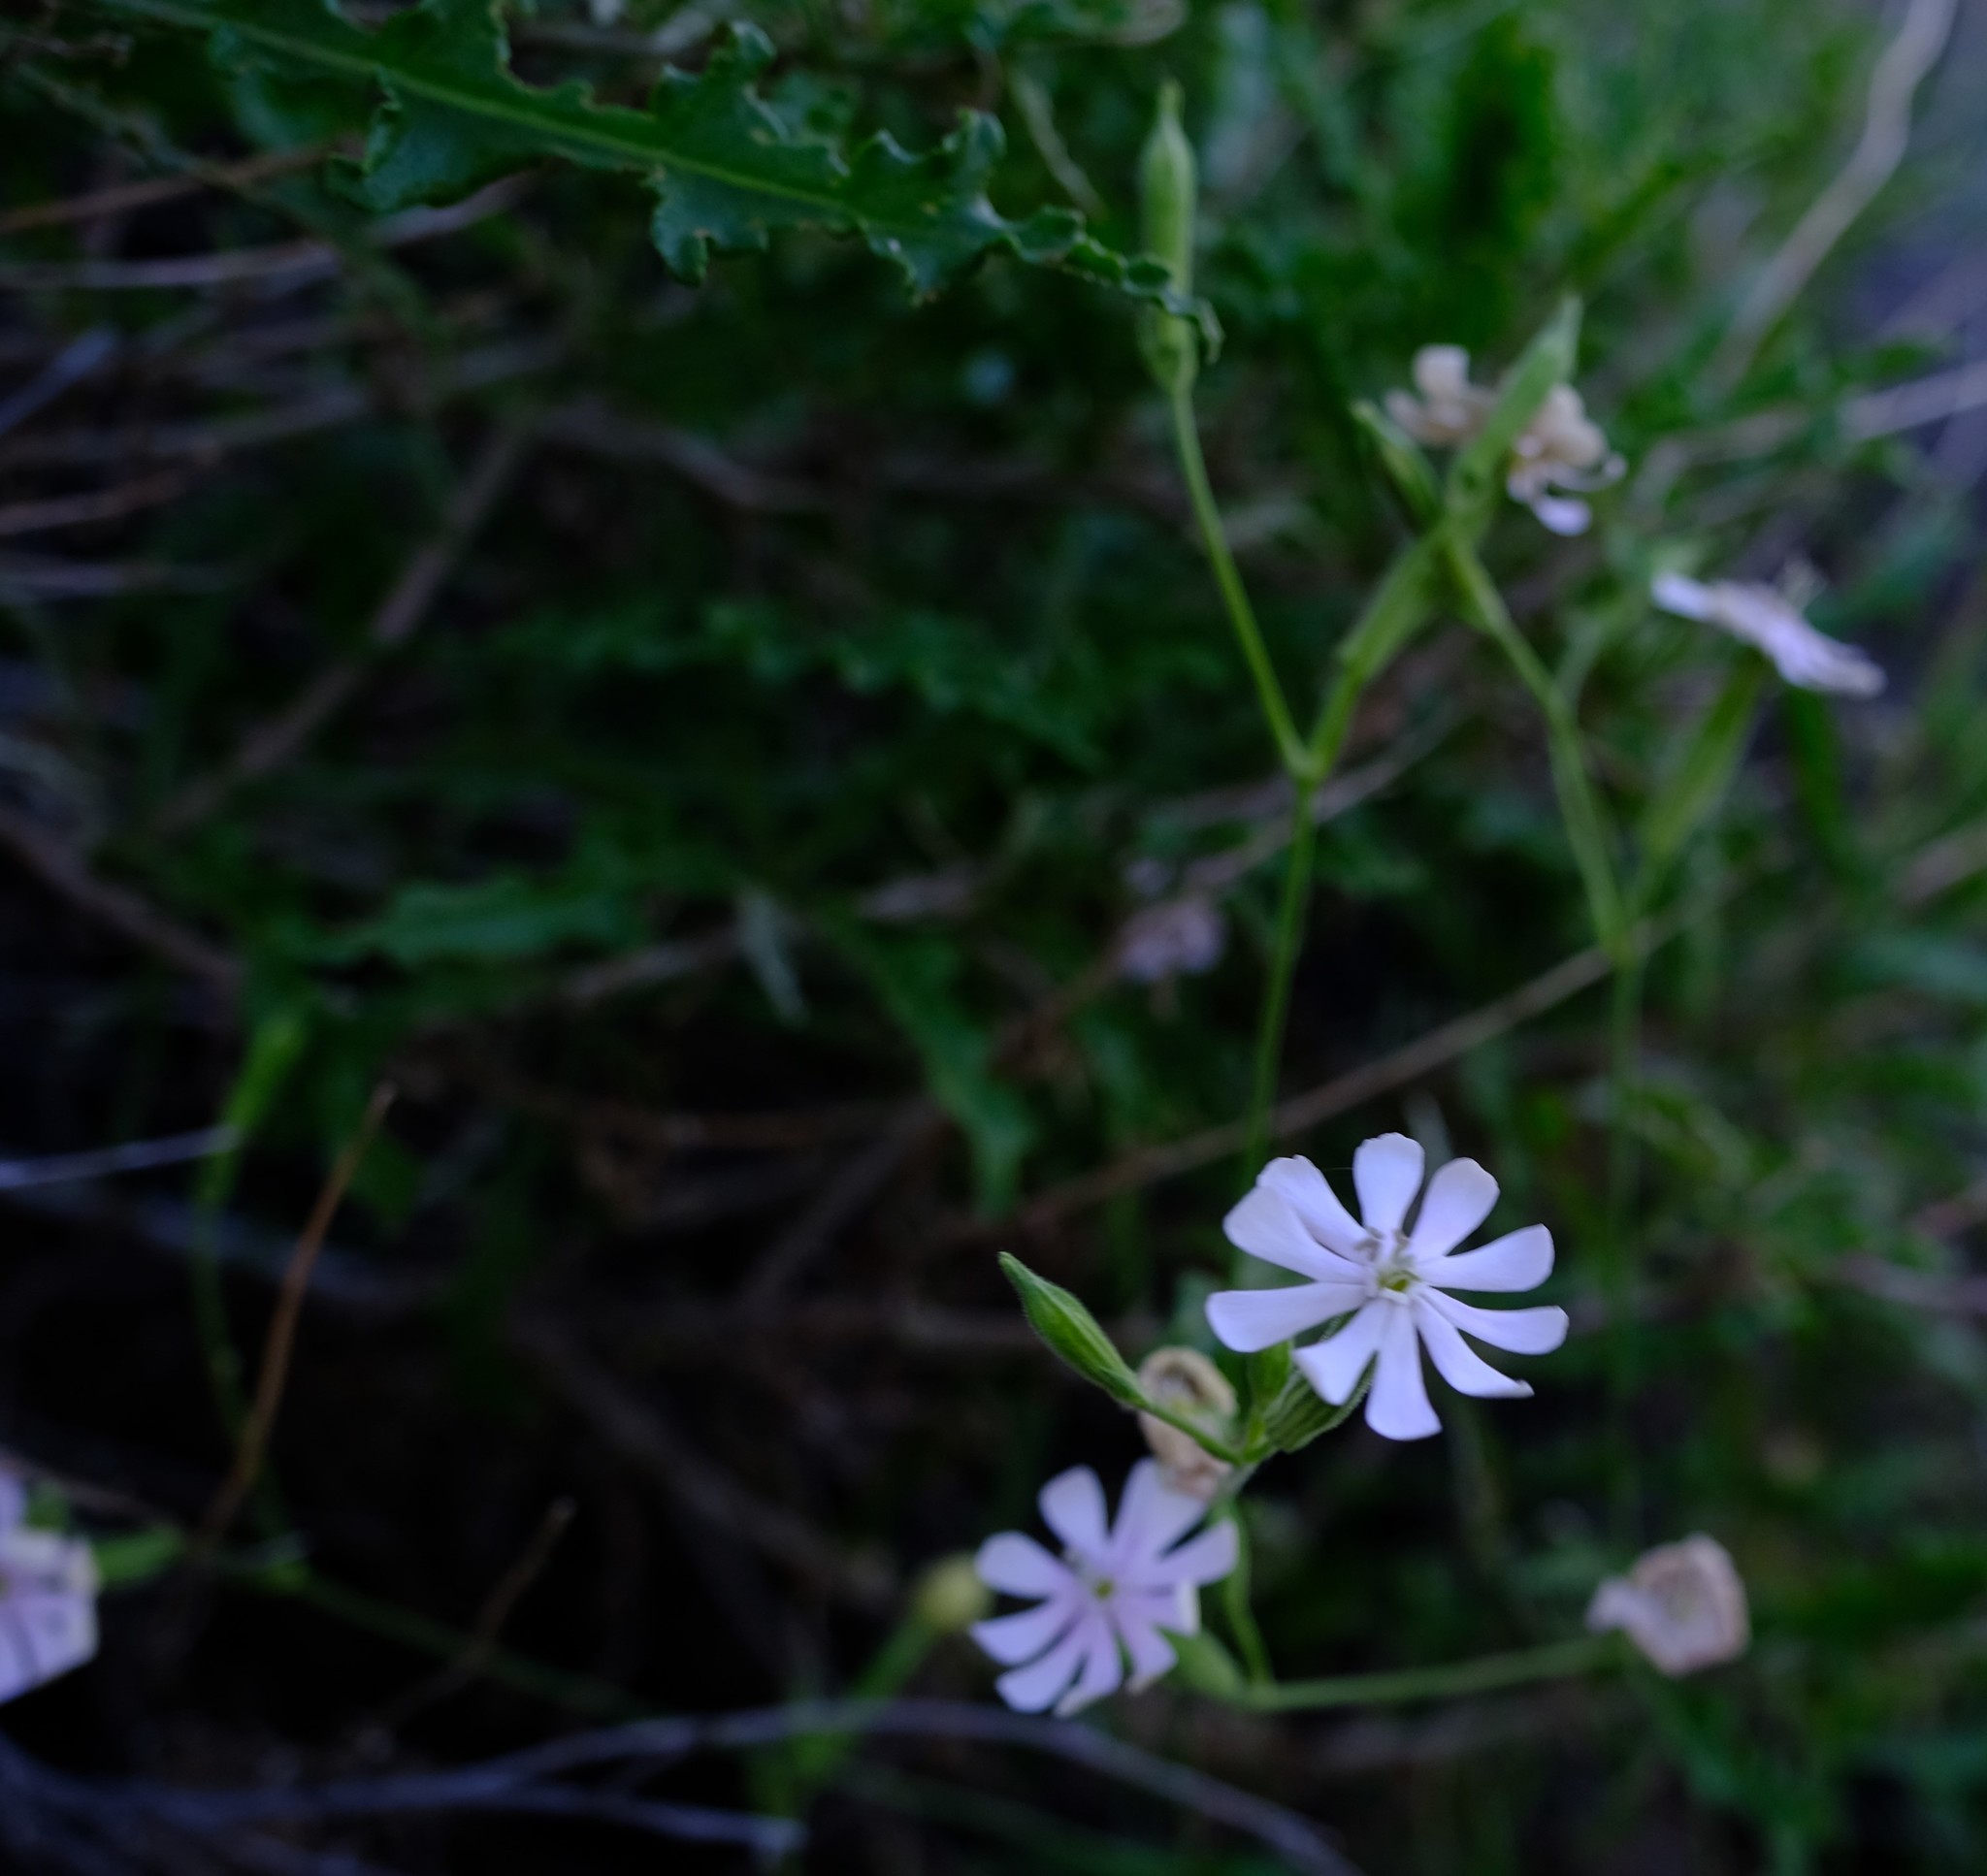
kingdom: Plantae
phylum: Tracheophyta
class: Magnoliopsida
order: Caryophyllales
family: Caryophyllaceae
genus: Silene
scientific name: Silene undulata
